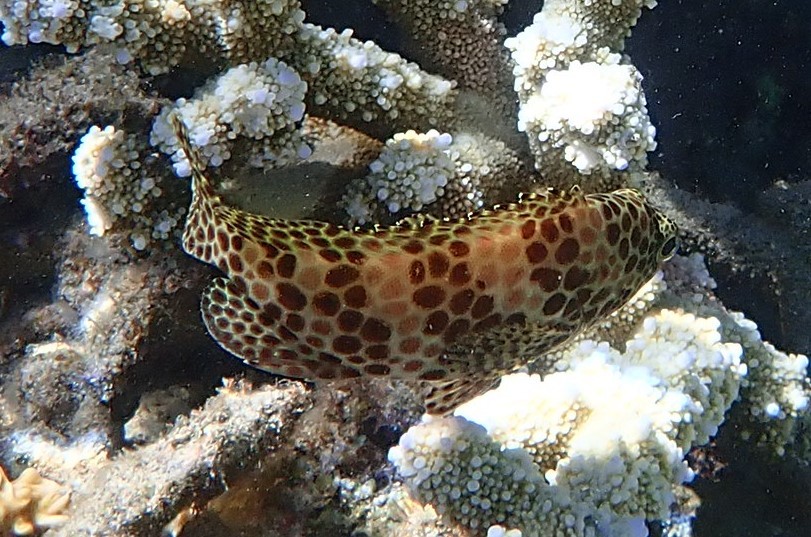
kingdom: Animalia
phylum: Chordata
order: Perciformes
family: Serranidae
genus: Epinephelus
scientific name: Epinephelus merra
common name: Honeycomb grouper
